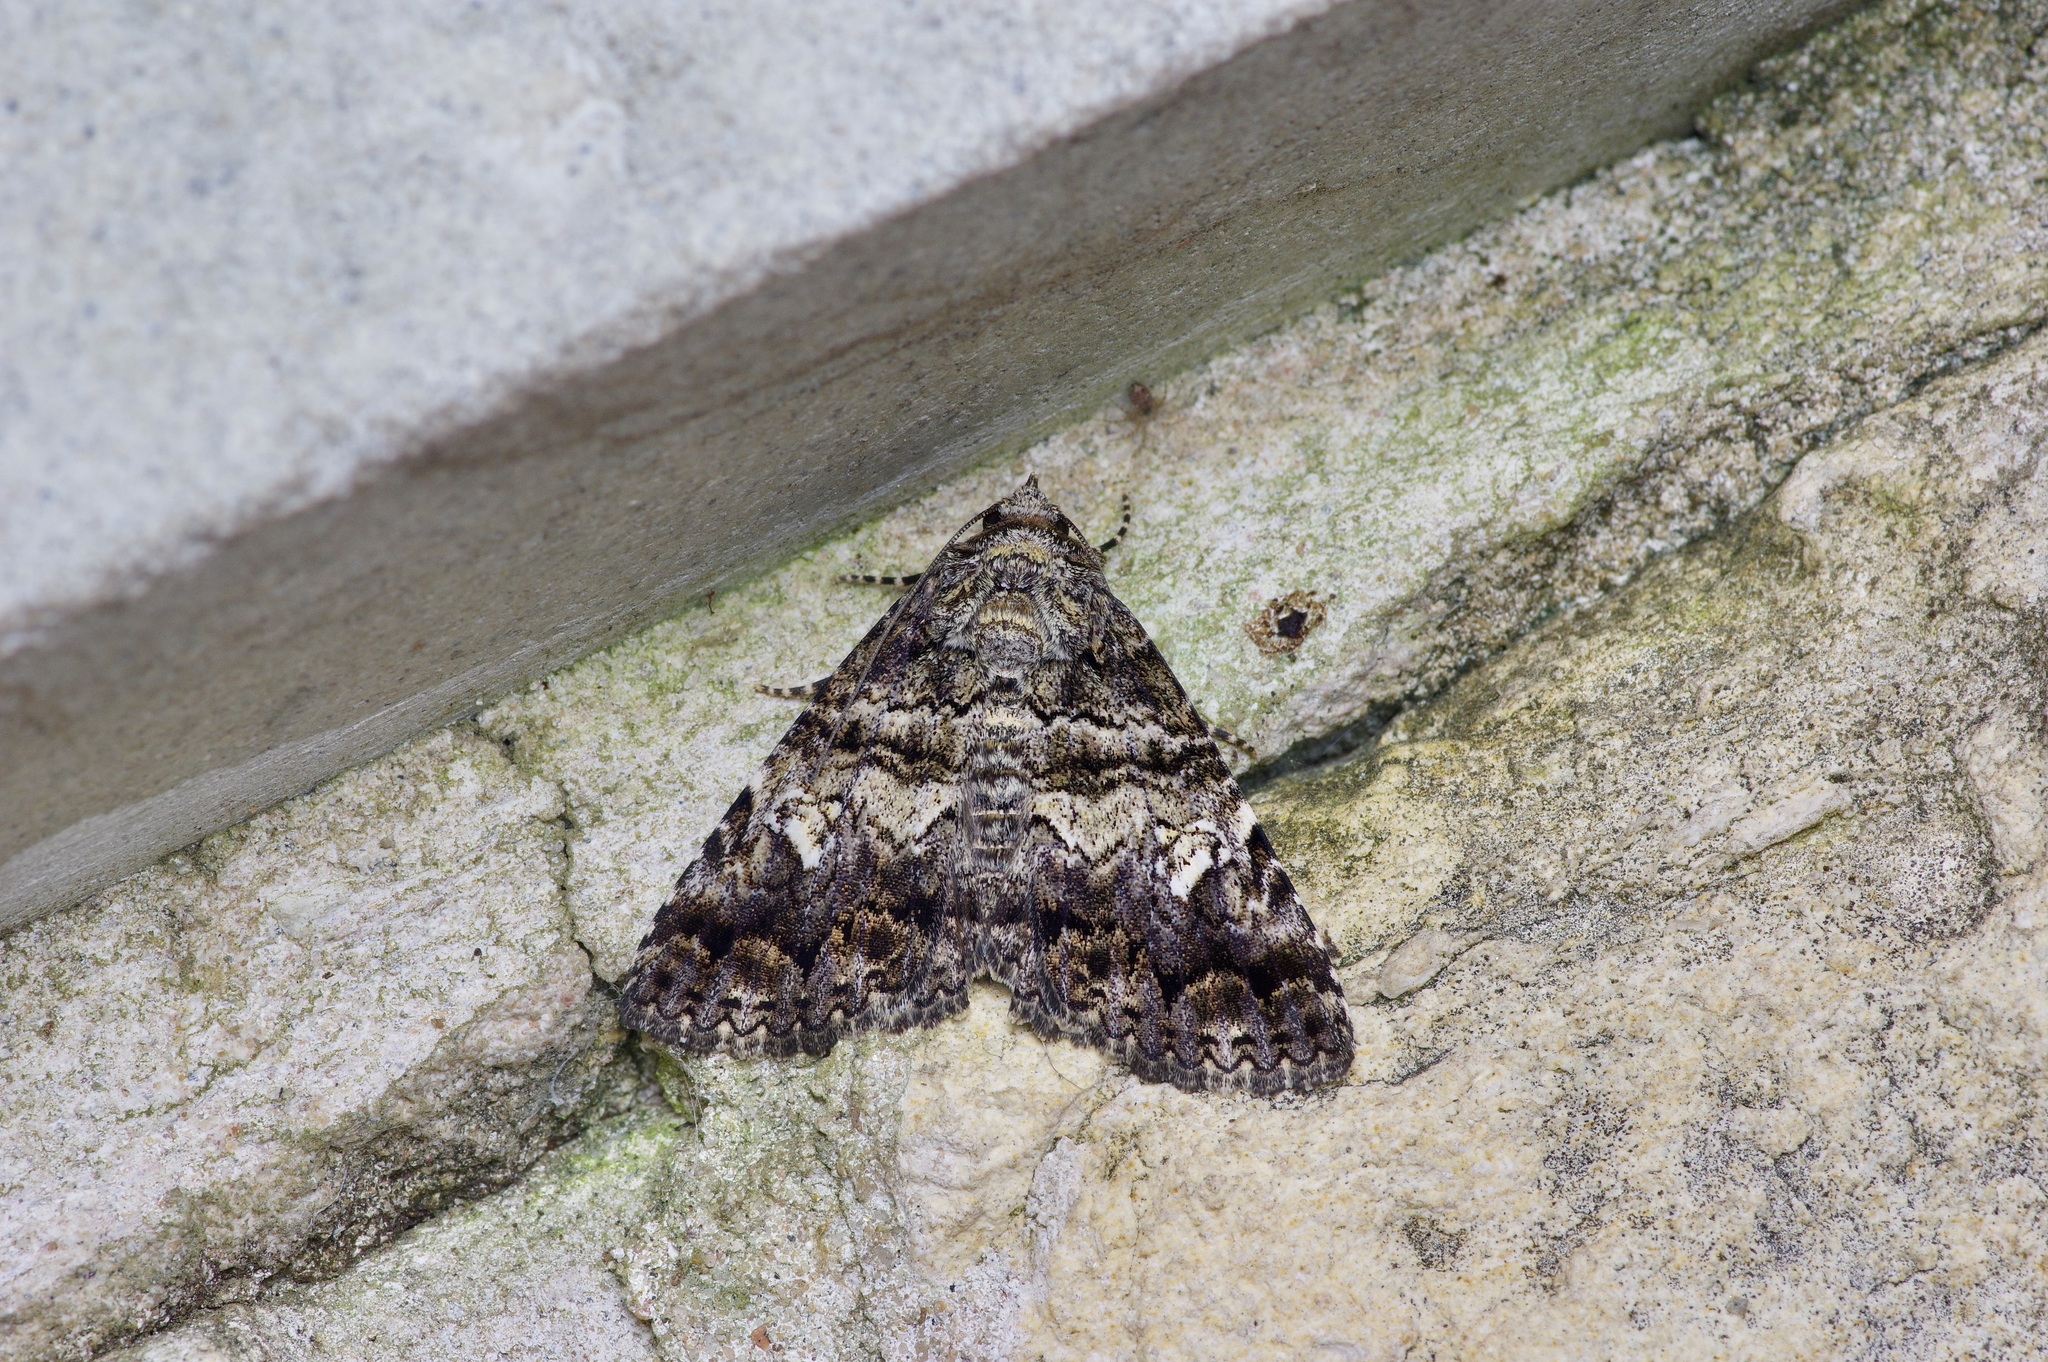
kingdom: Animalia
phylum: Arthropoda
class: Insecta
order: Lepidoptera
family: Erebidae
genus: Metria
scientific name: Metria amella
